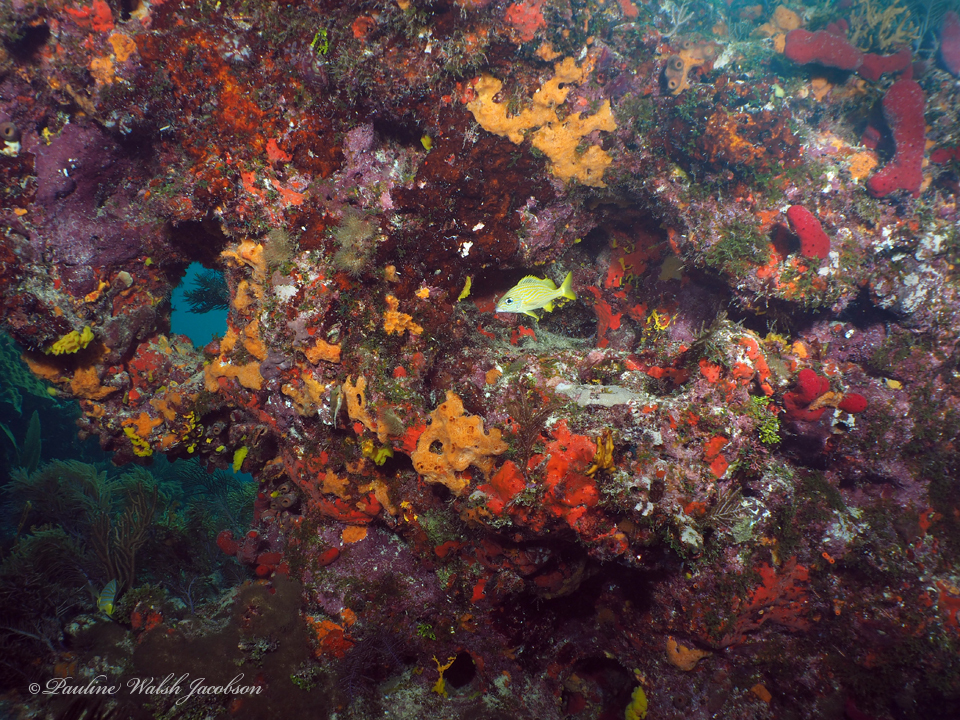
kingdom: Animalia
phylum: Chordata
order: Perciformes
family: Haemulidae
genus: Haemulon
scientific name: Haemulon flavolineatum
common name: French grunt
